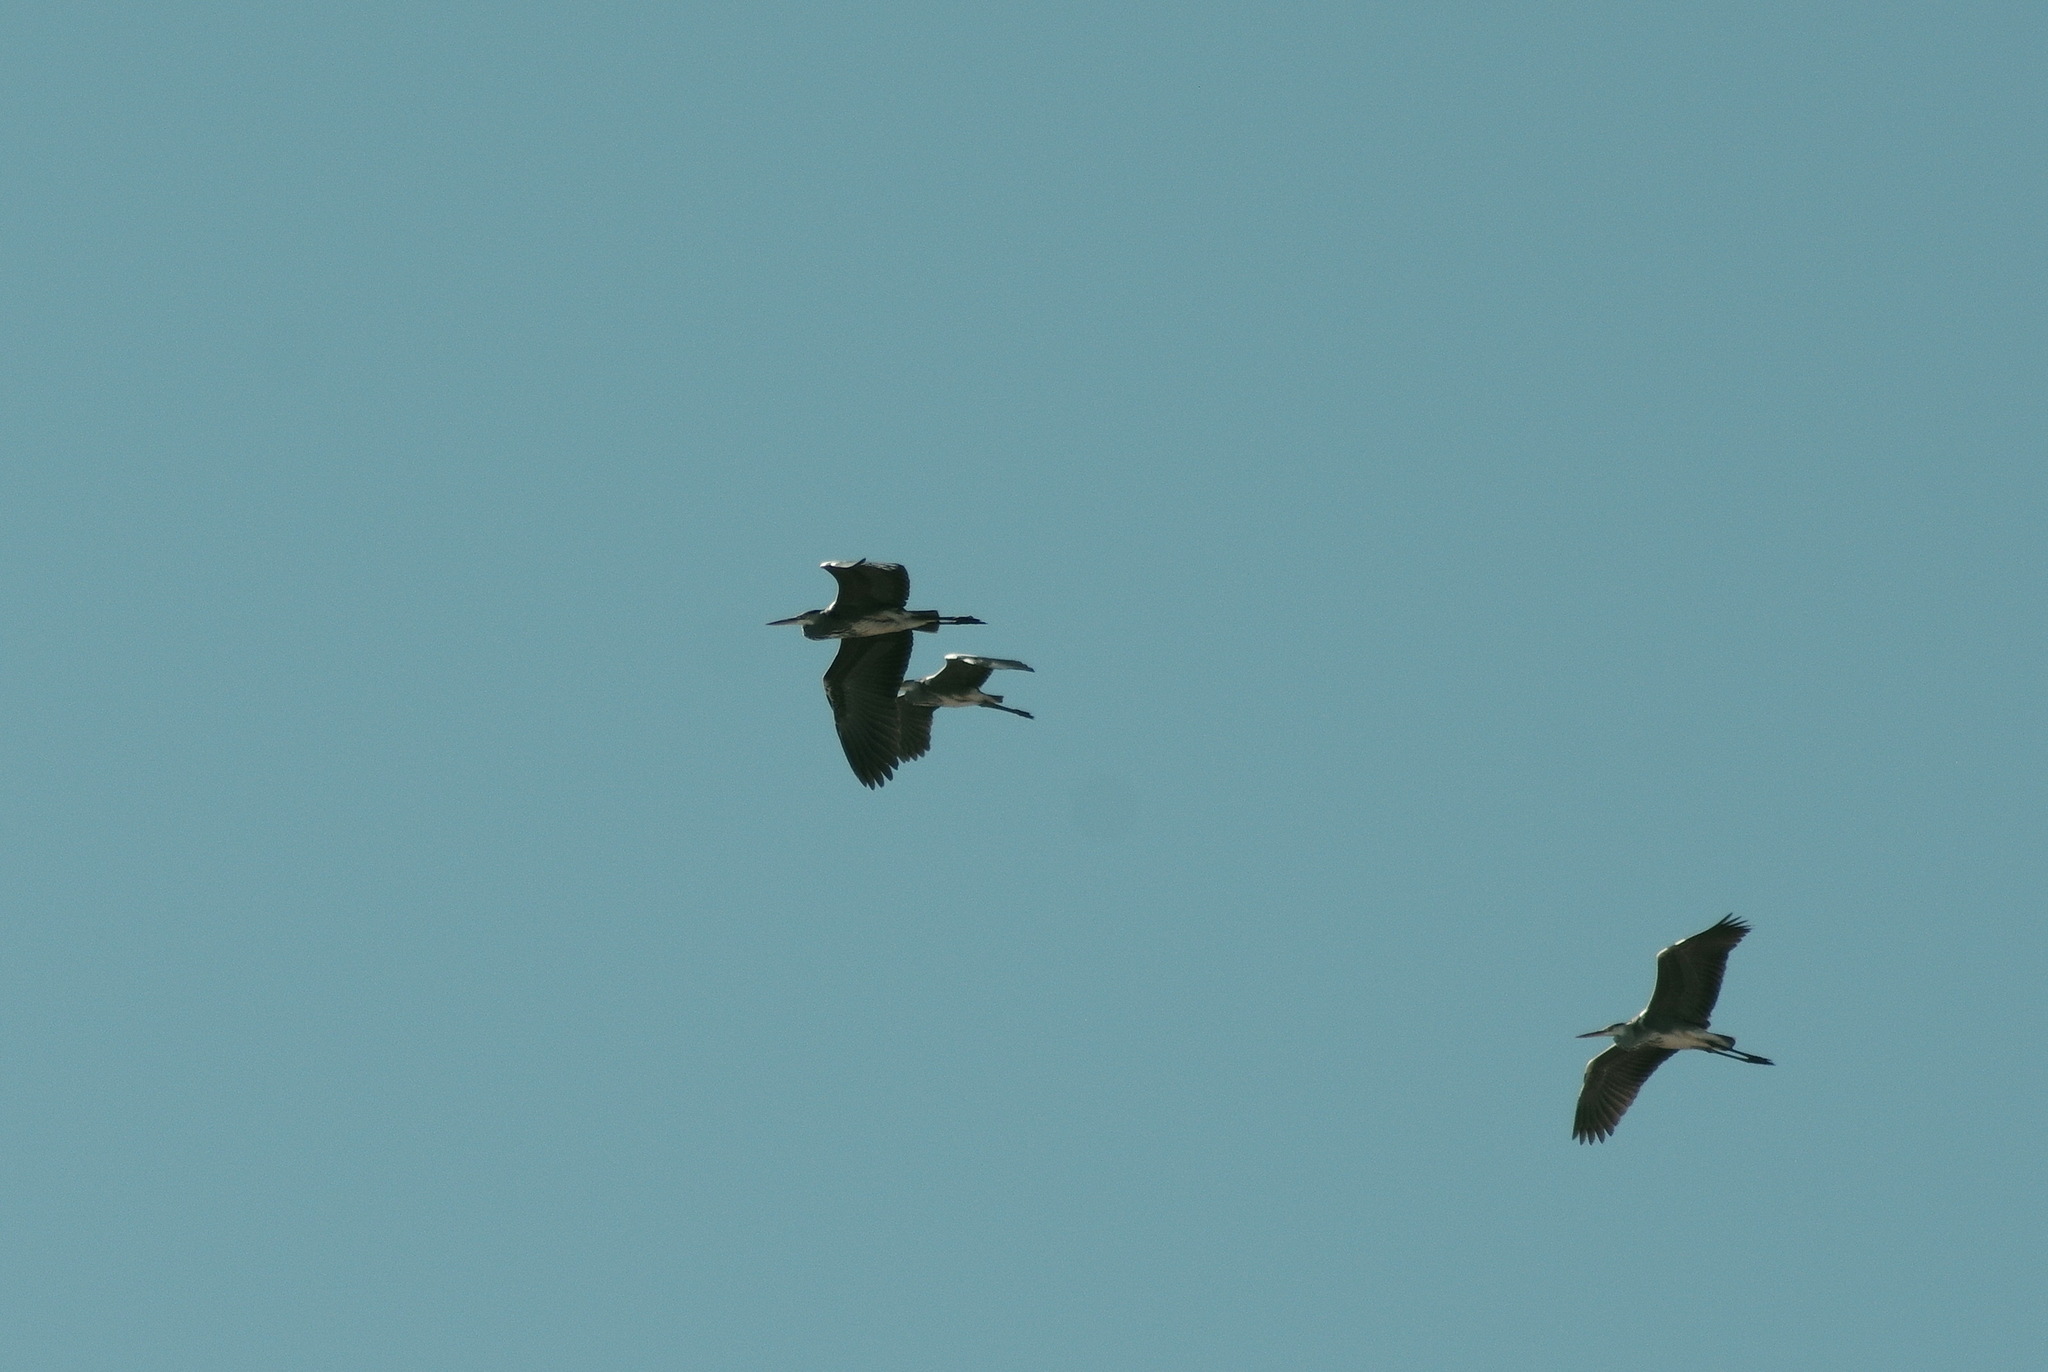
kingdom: Animalia
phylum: Chordata
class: Aves
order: Pelecaniformes
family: Ardeidae
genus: Ardea
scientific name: Ardea cinerea
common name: Grey heron
